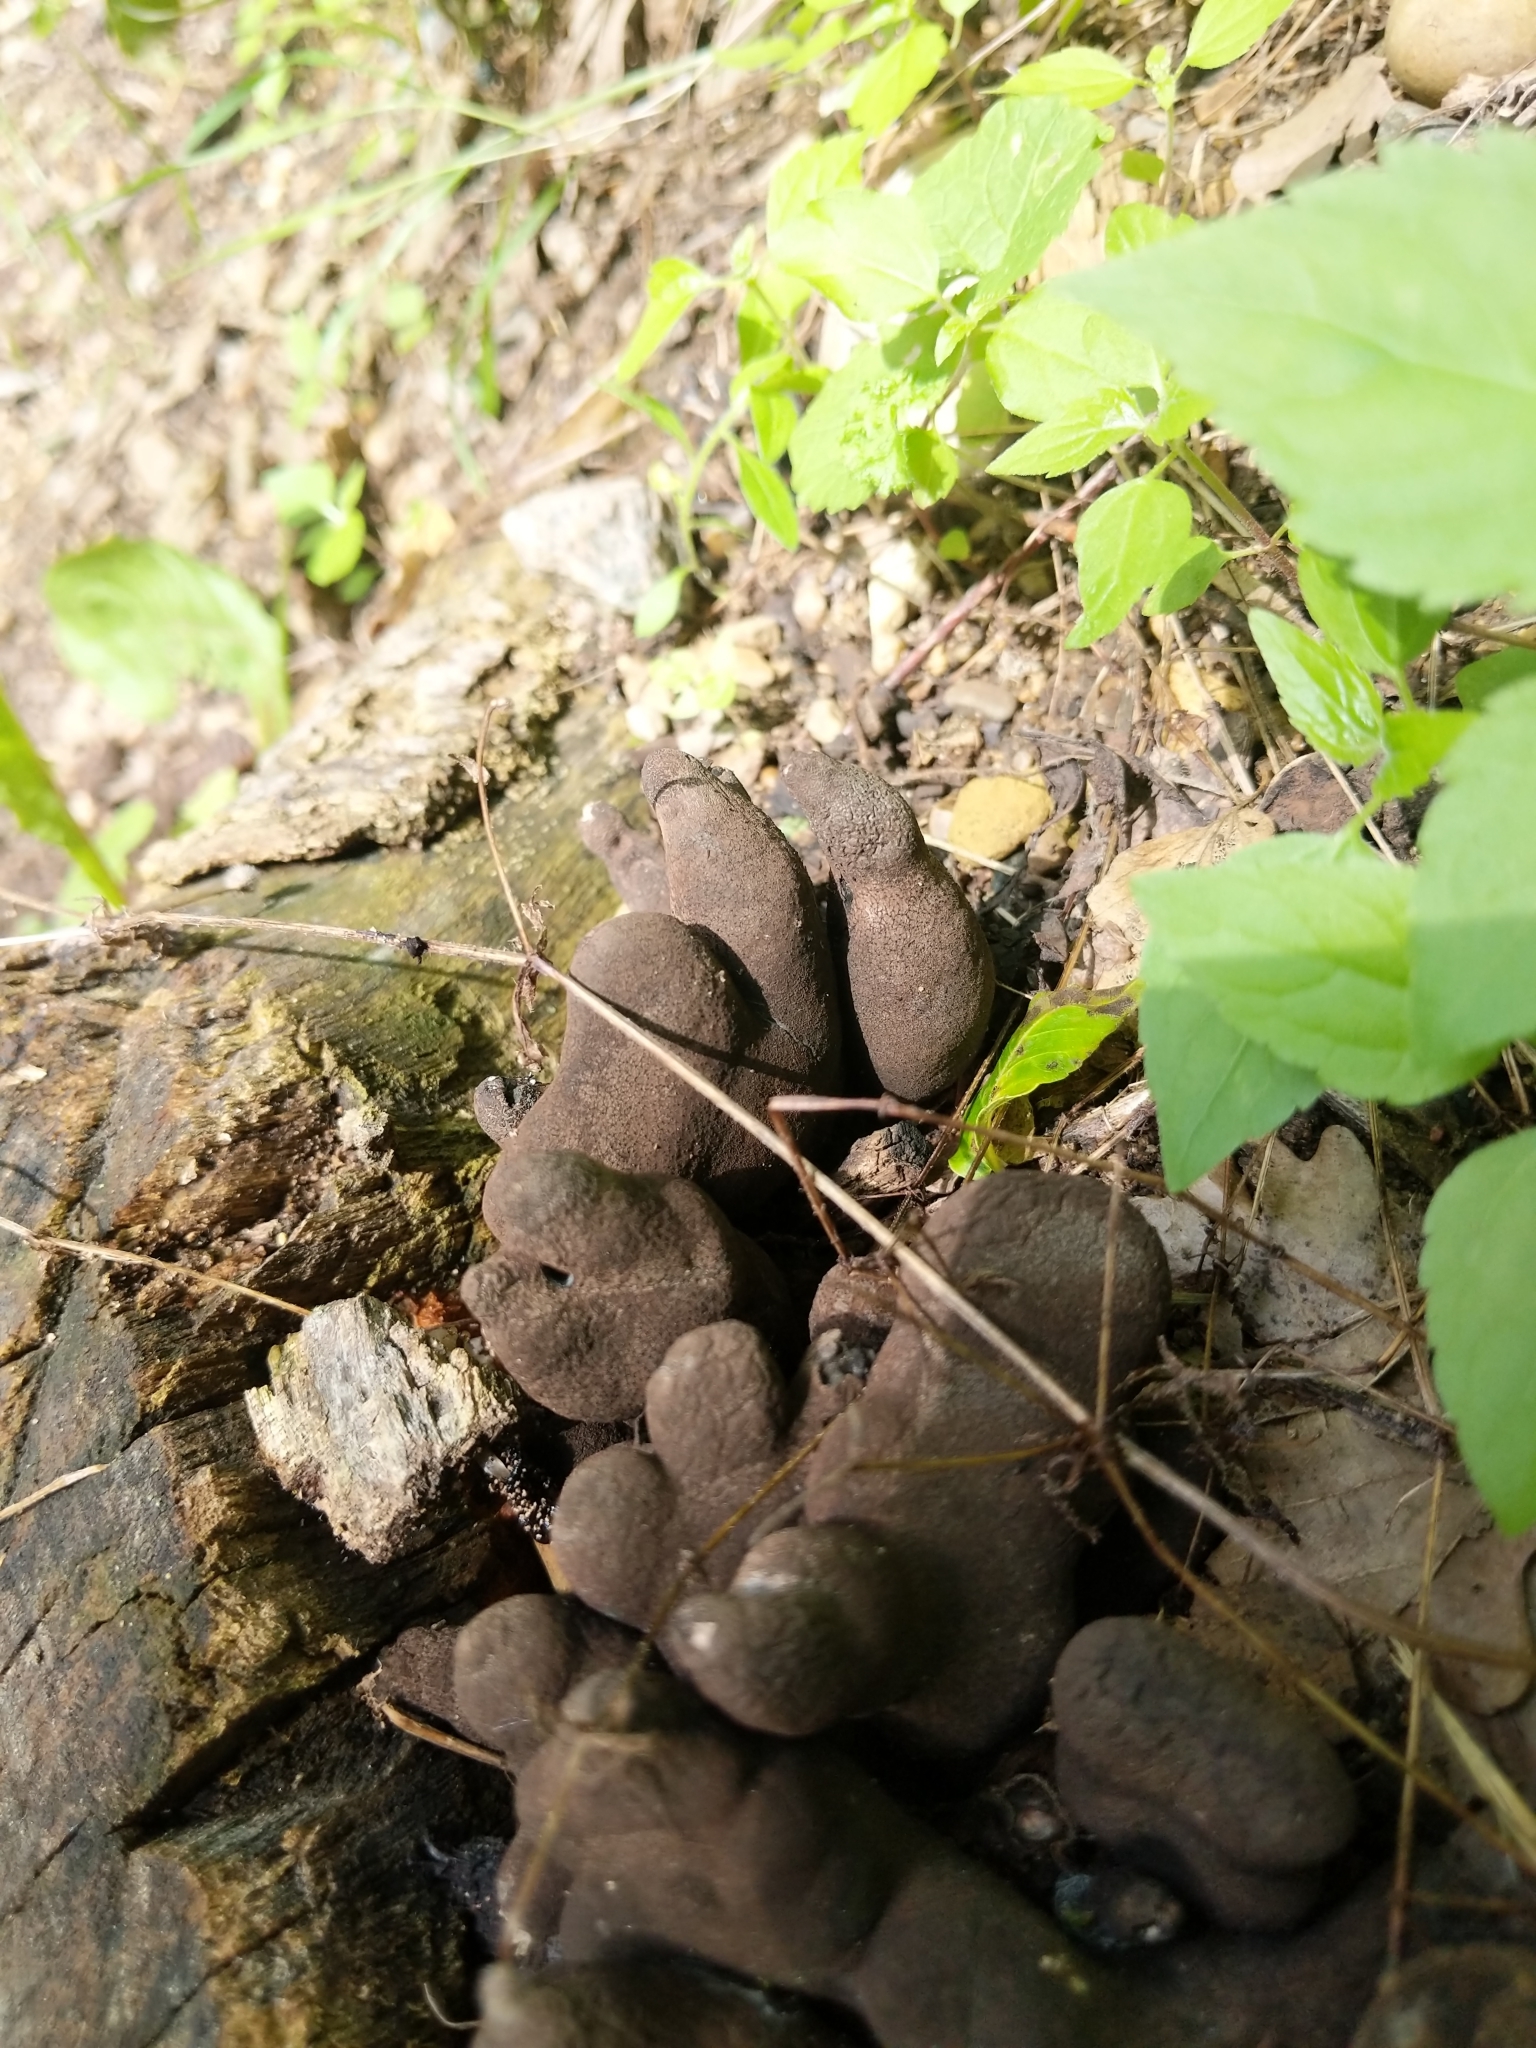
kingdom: Fungi
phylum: Ascomycota
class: Sordariomycetes
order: Xylariales
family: Xylariaceae
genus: Xylaria
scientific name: Xylaria polymorpha
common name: Dead man's fingers
